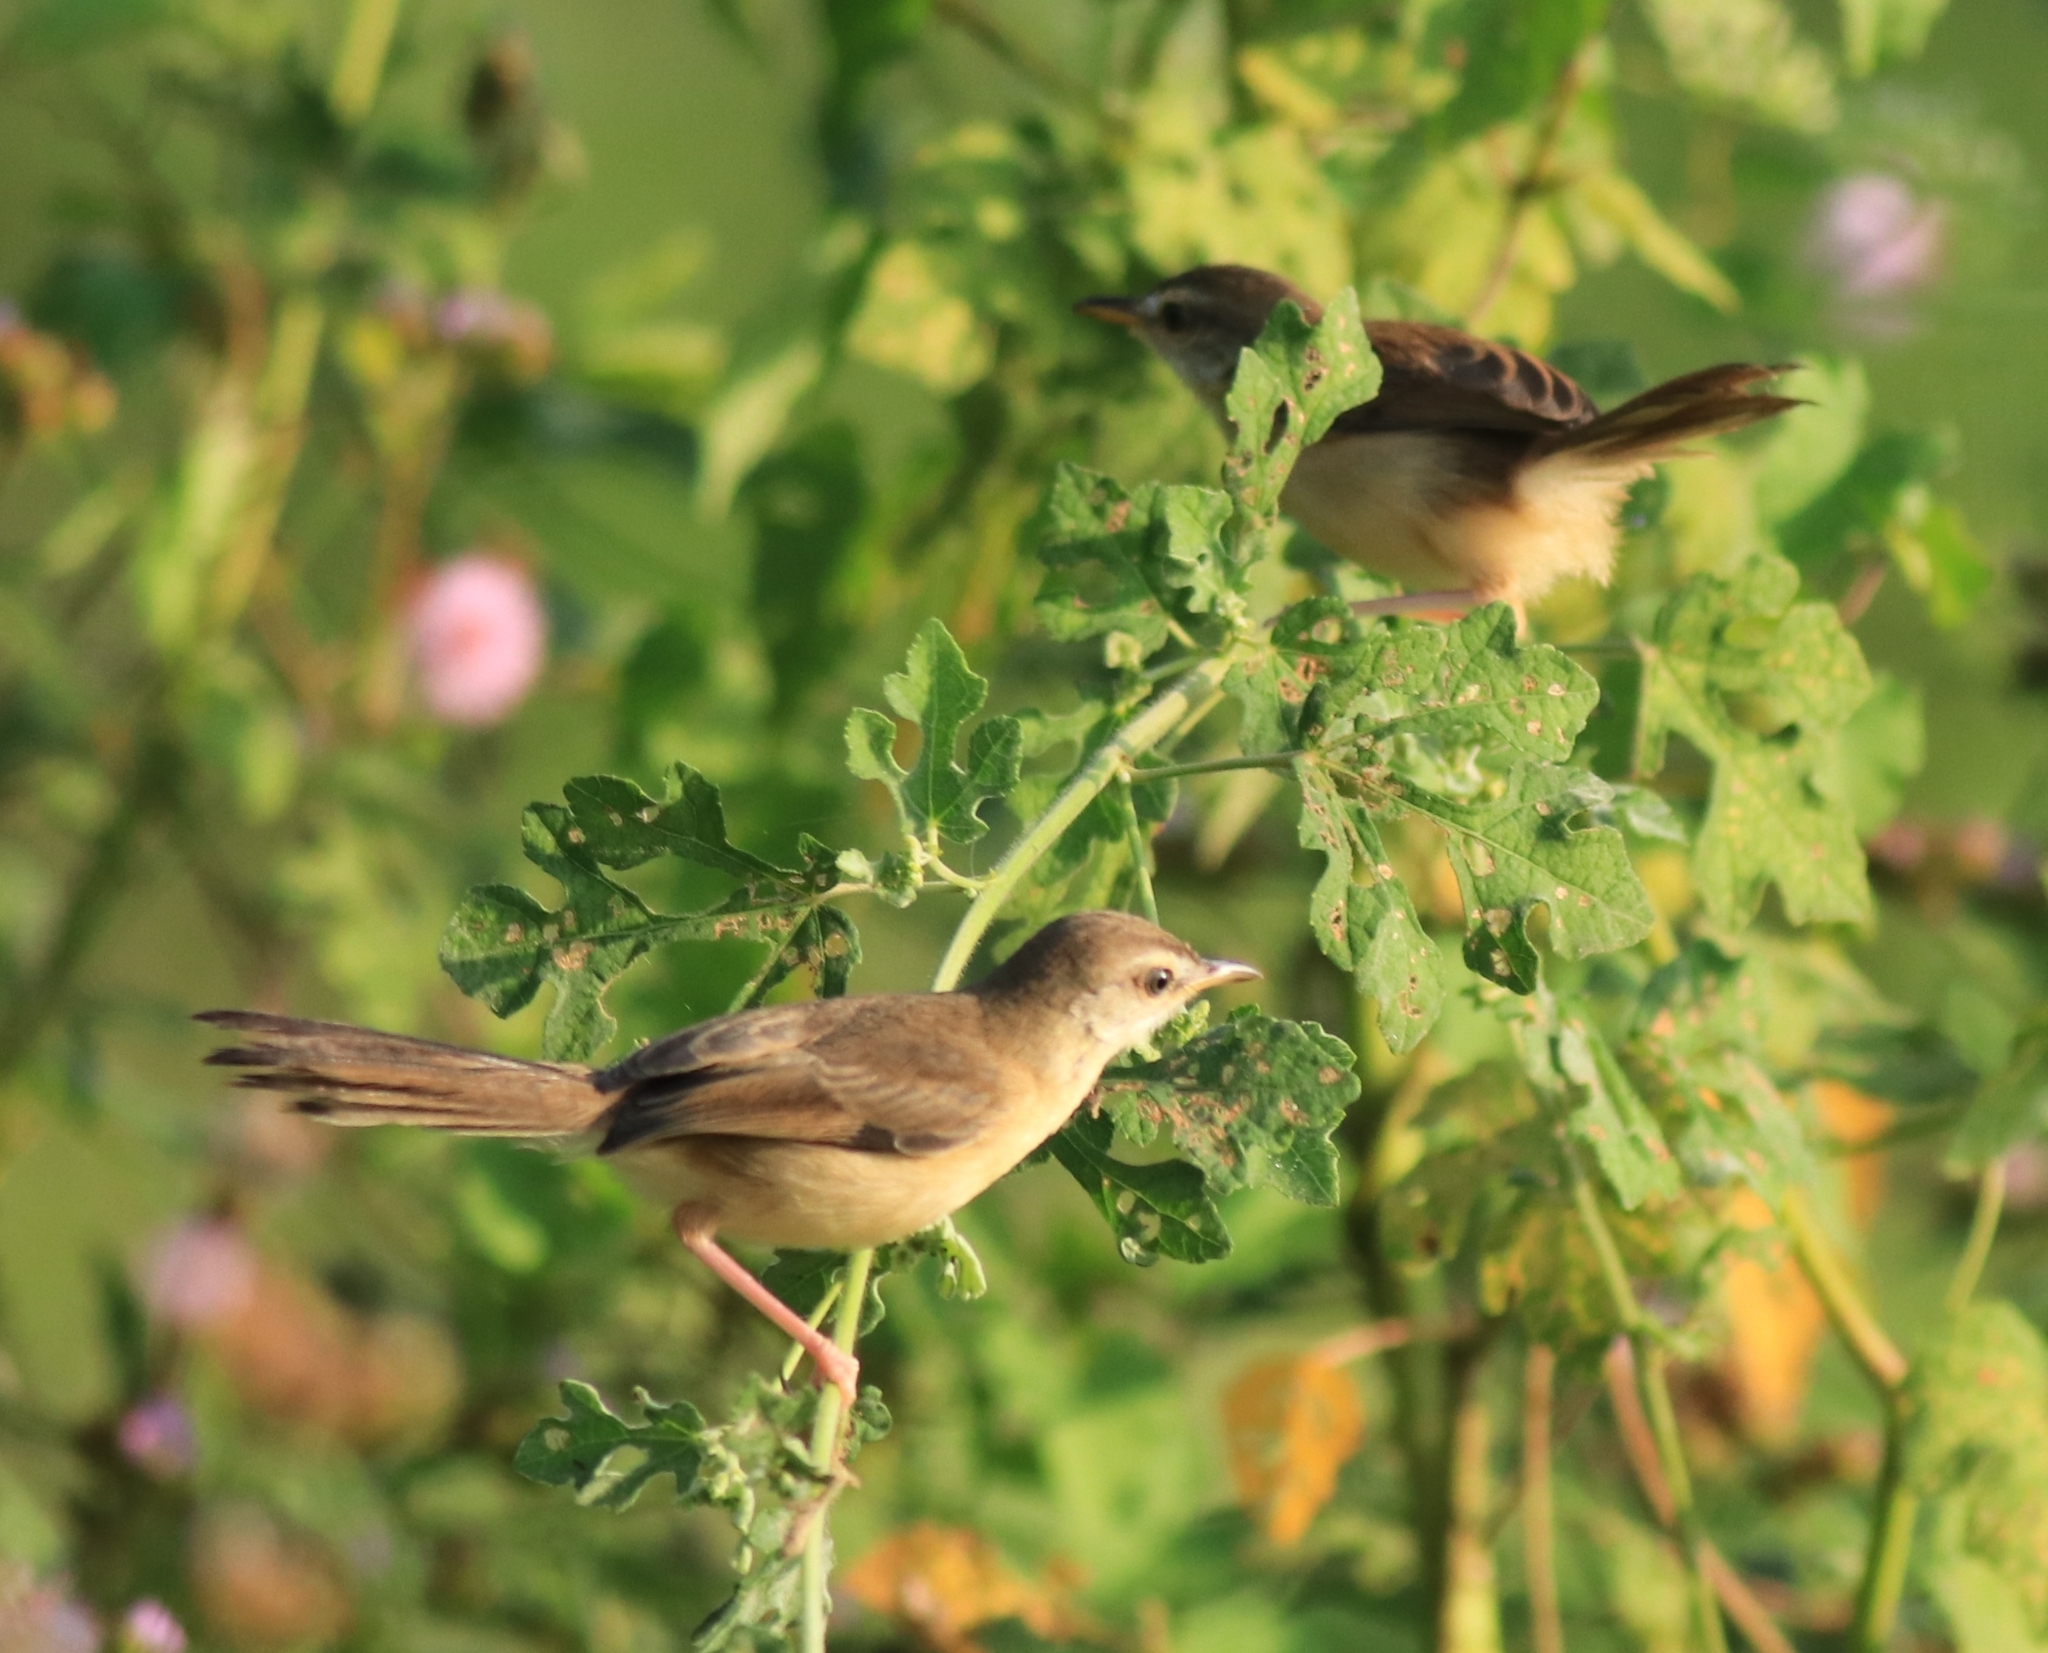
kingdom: Animalia
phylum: Chordata
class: Aves
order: Passeriformes
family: Cisticolidae
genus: Prinia
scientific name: Prinia inornata
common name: Plain prinia
